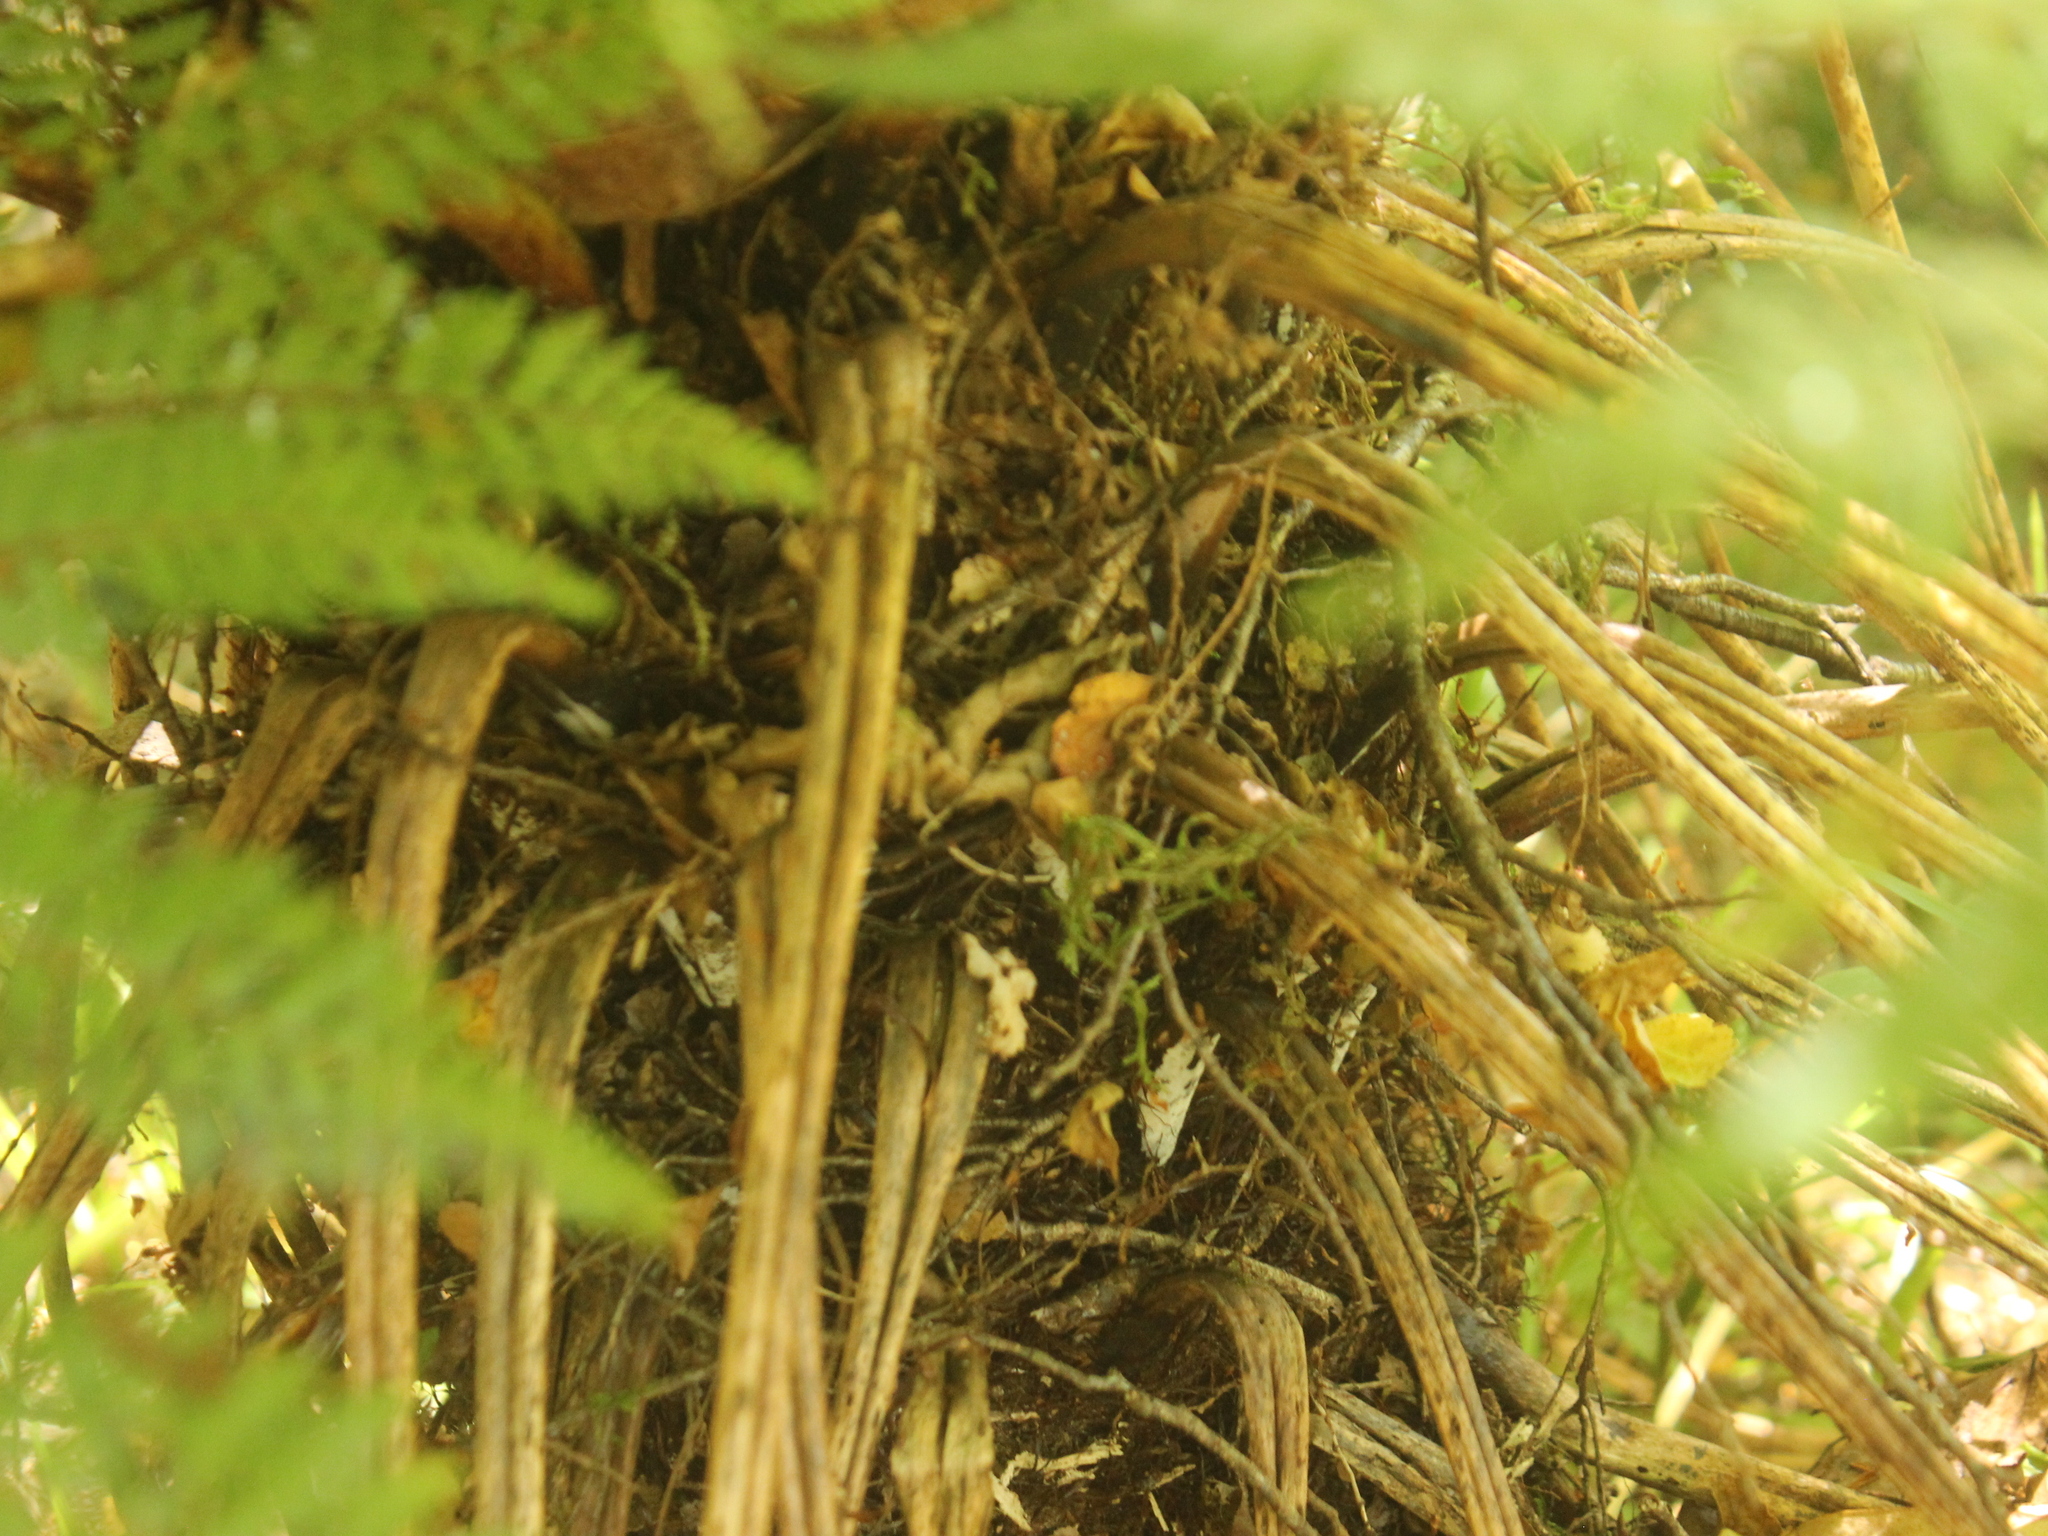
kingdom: Plantae
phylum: Tracheophyta
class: Polypodiopsida
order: Cyatheales
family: Cyatheaceae
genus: Alsophila
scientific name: Alsophila smithii
